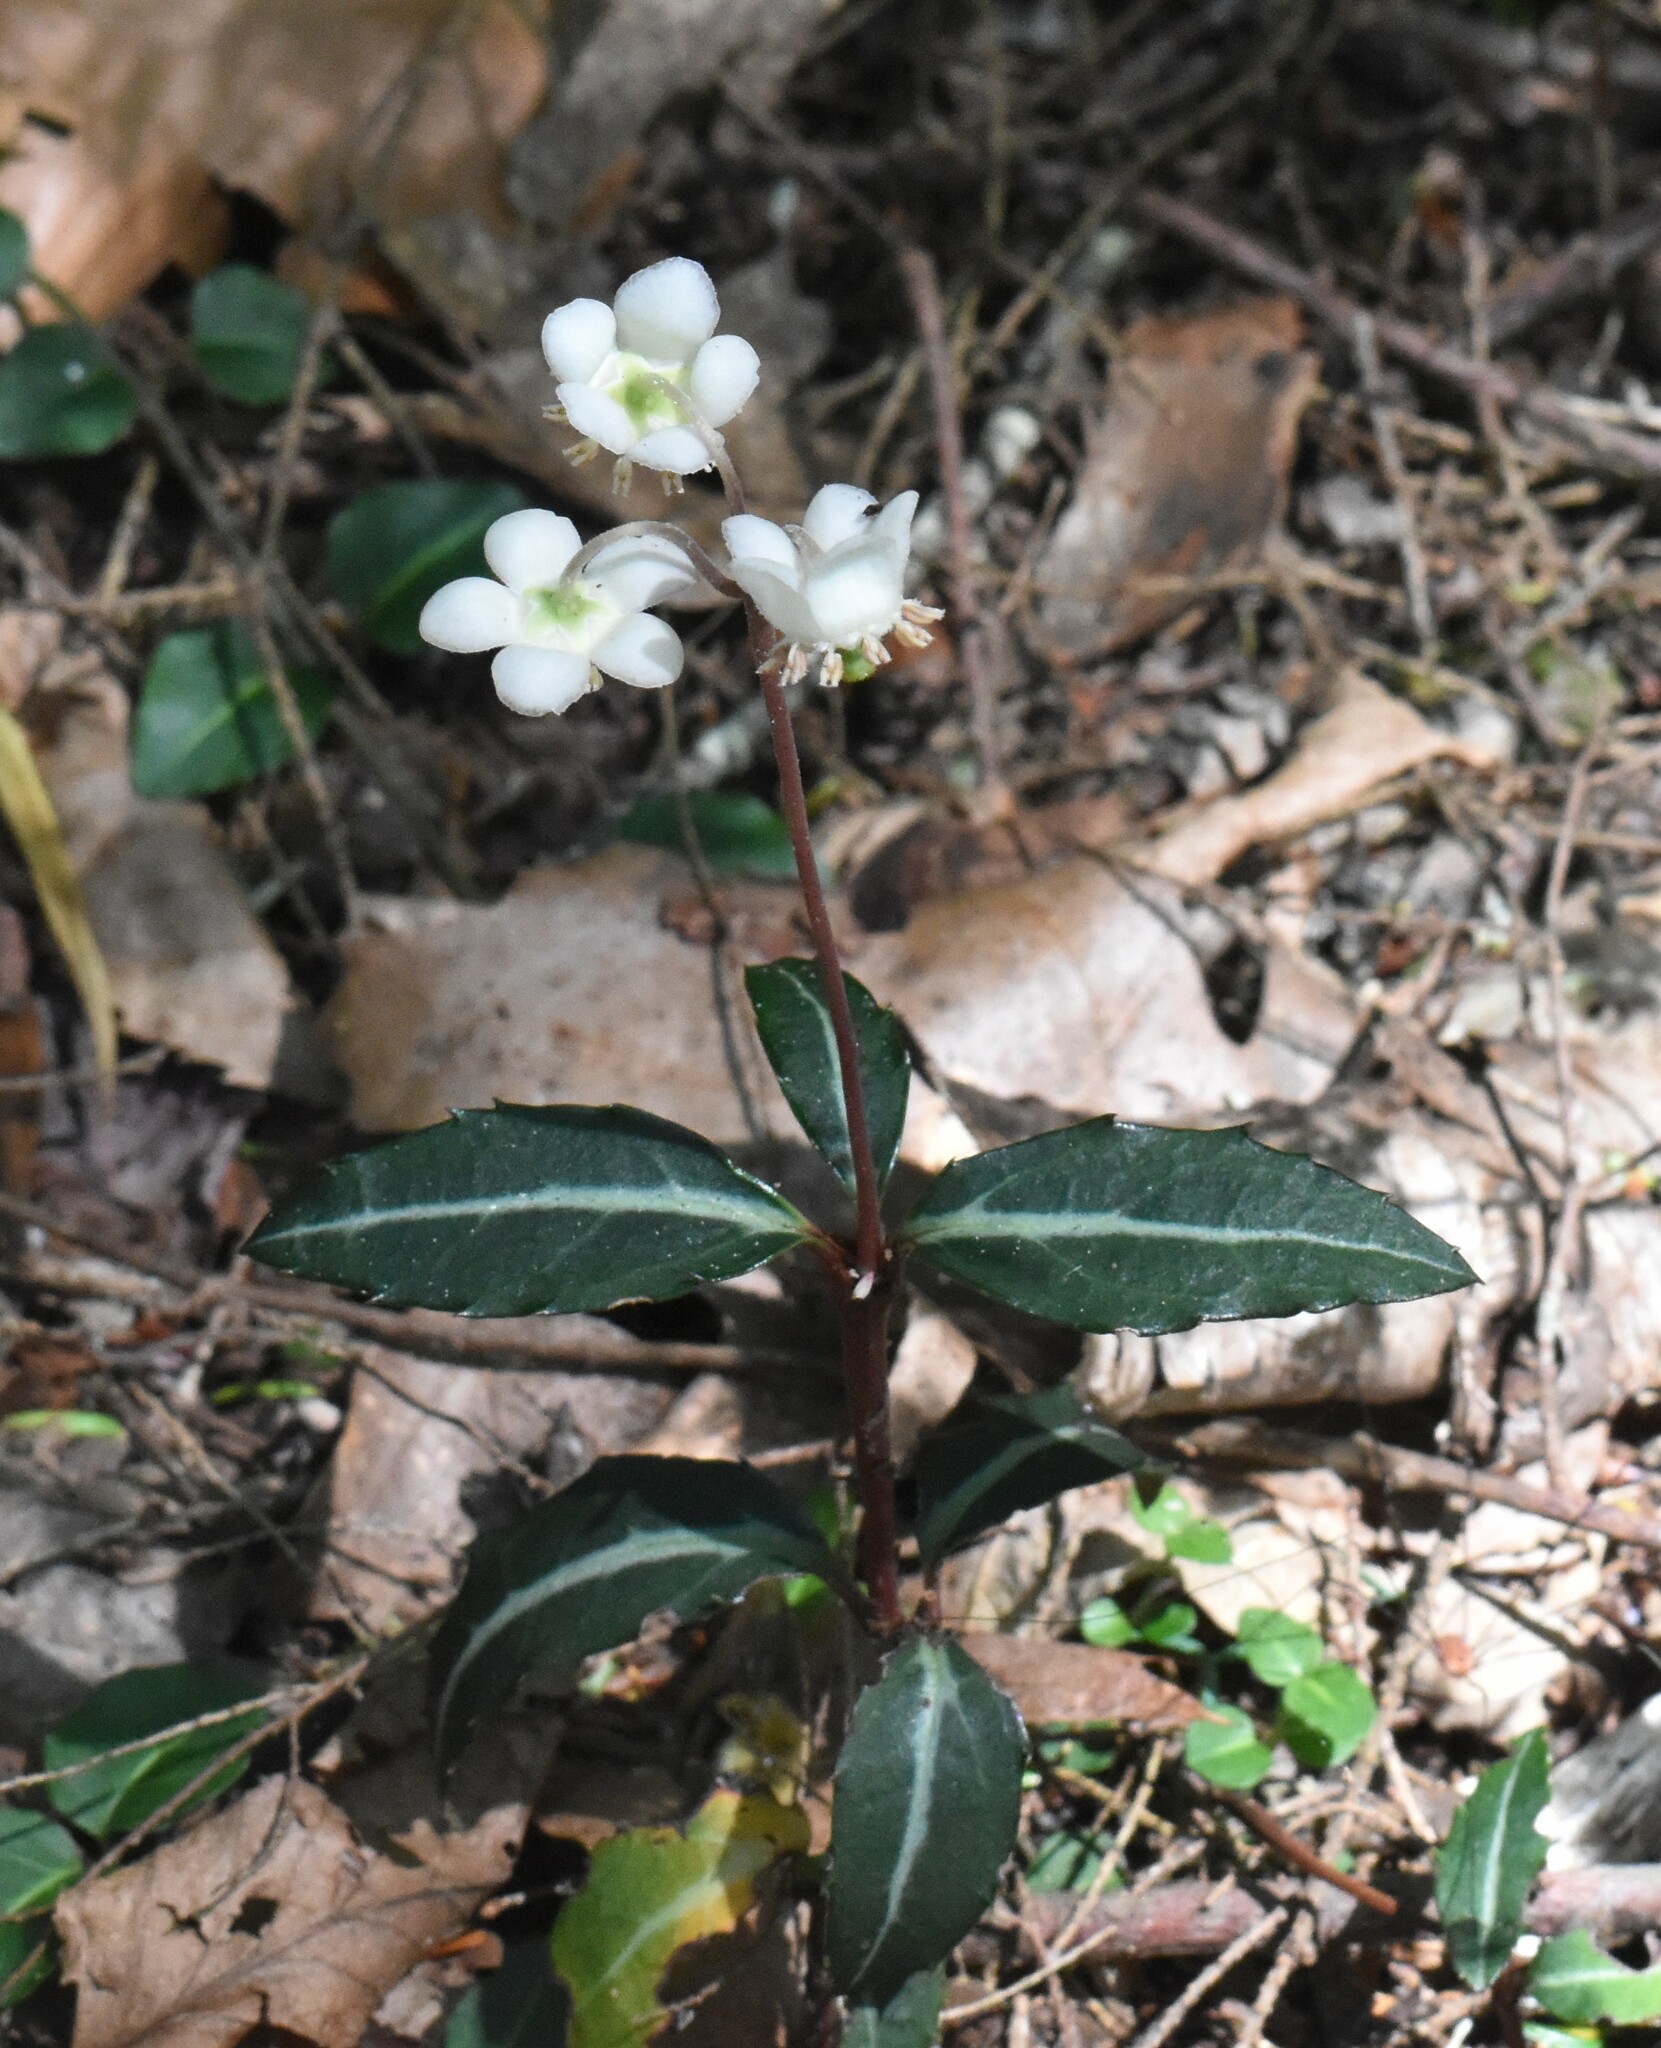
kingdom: Plantae
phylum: Tracheophyta
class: Magnoliopsida
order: Ericales
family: Ericaceae
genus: Chimaphila
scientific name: Chimaphila maculata
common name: Spotted pipsissewa
